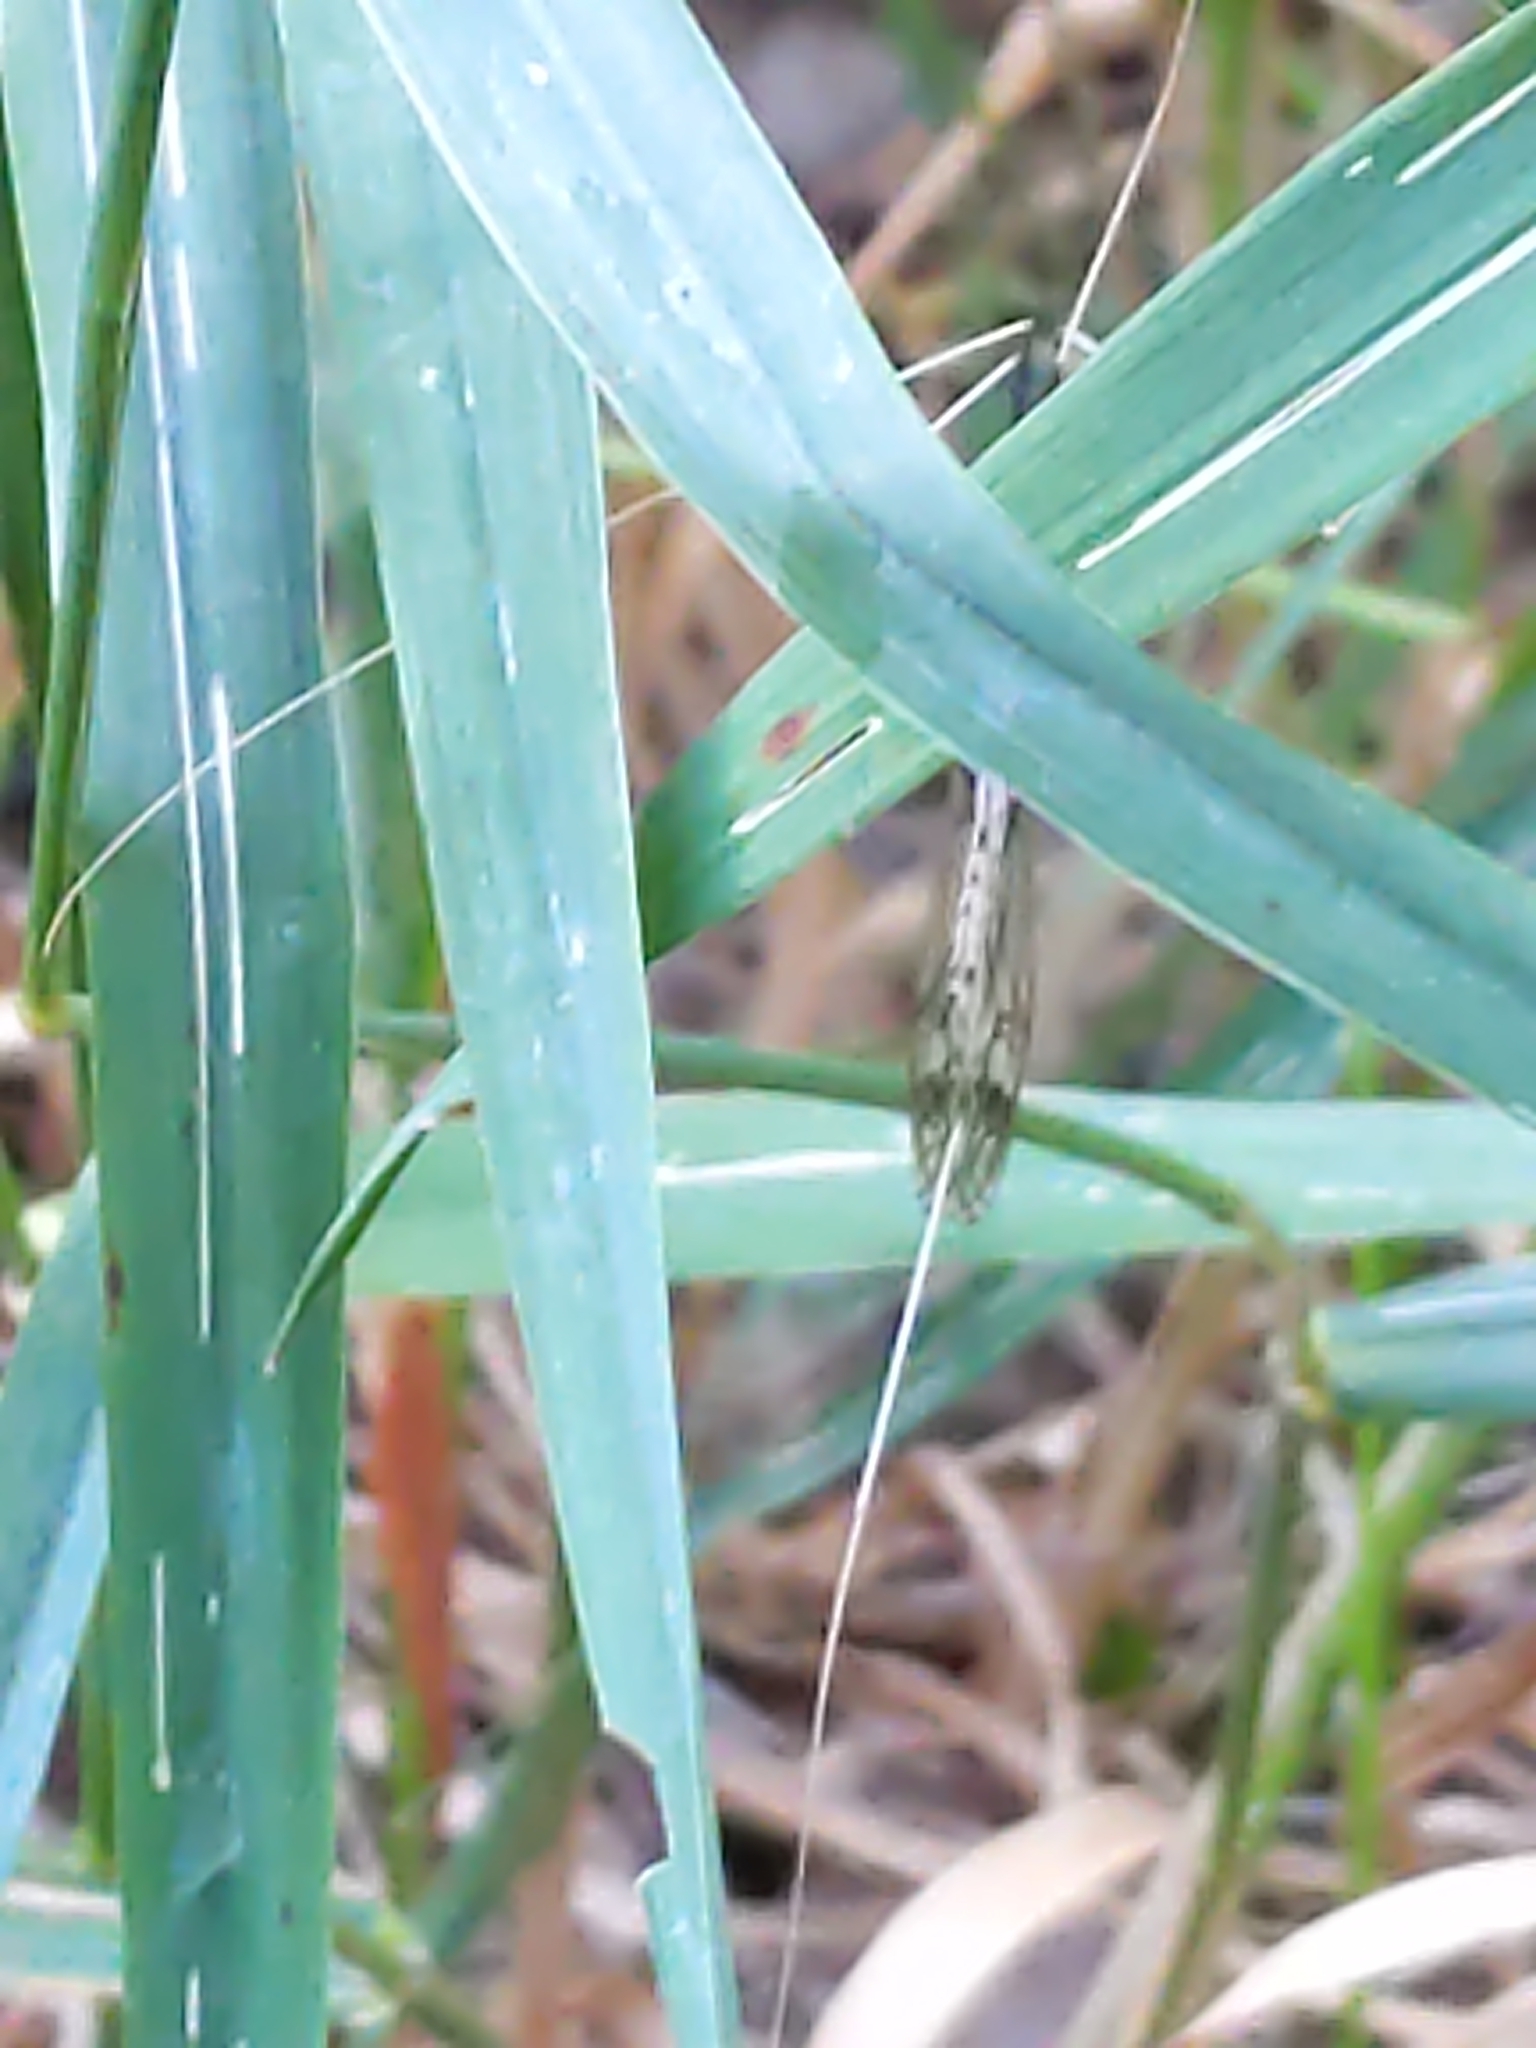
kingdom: Animalia
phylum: Arthropoda
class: Insecta
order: Diptera
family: Tipulidae
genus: Brachypremna
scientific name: Brachypremna dispellens
